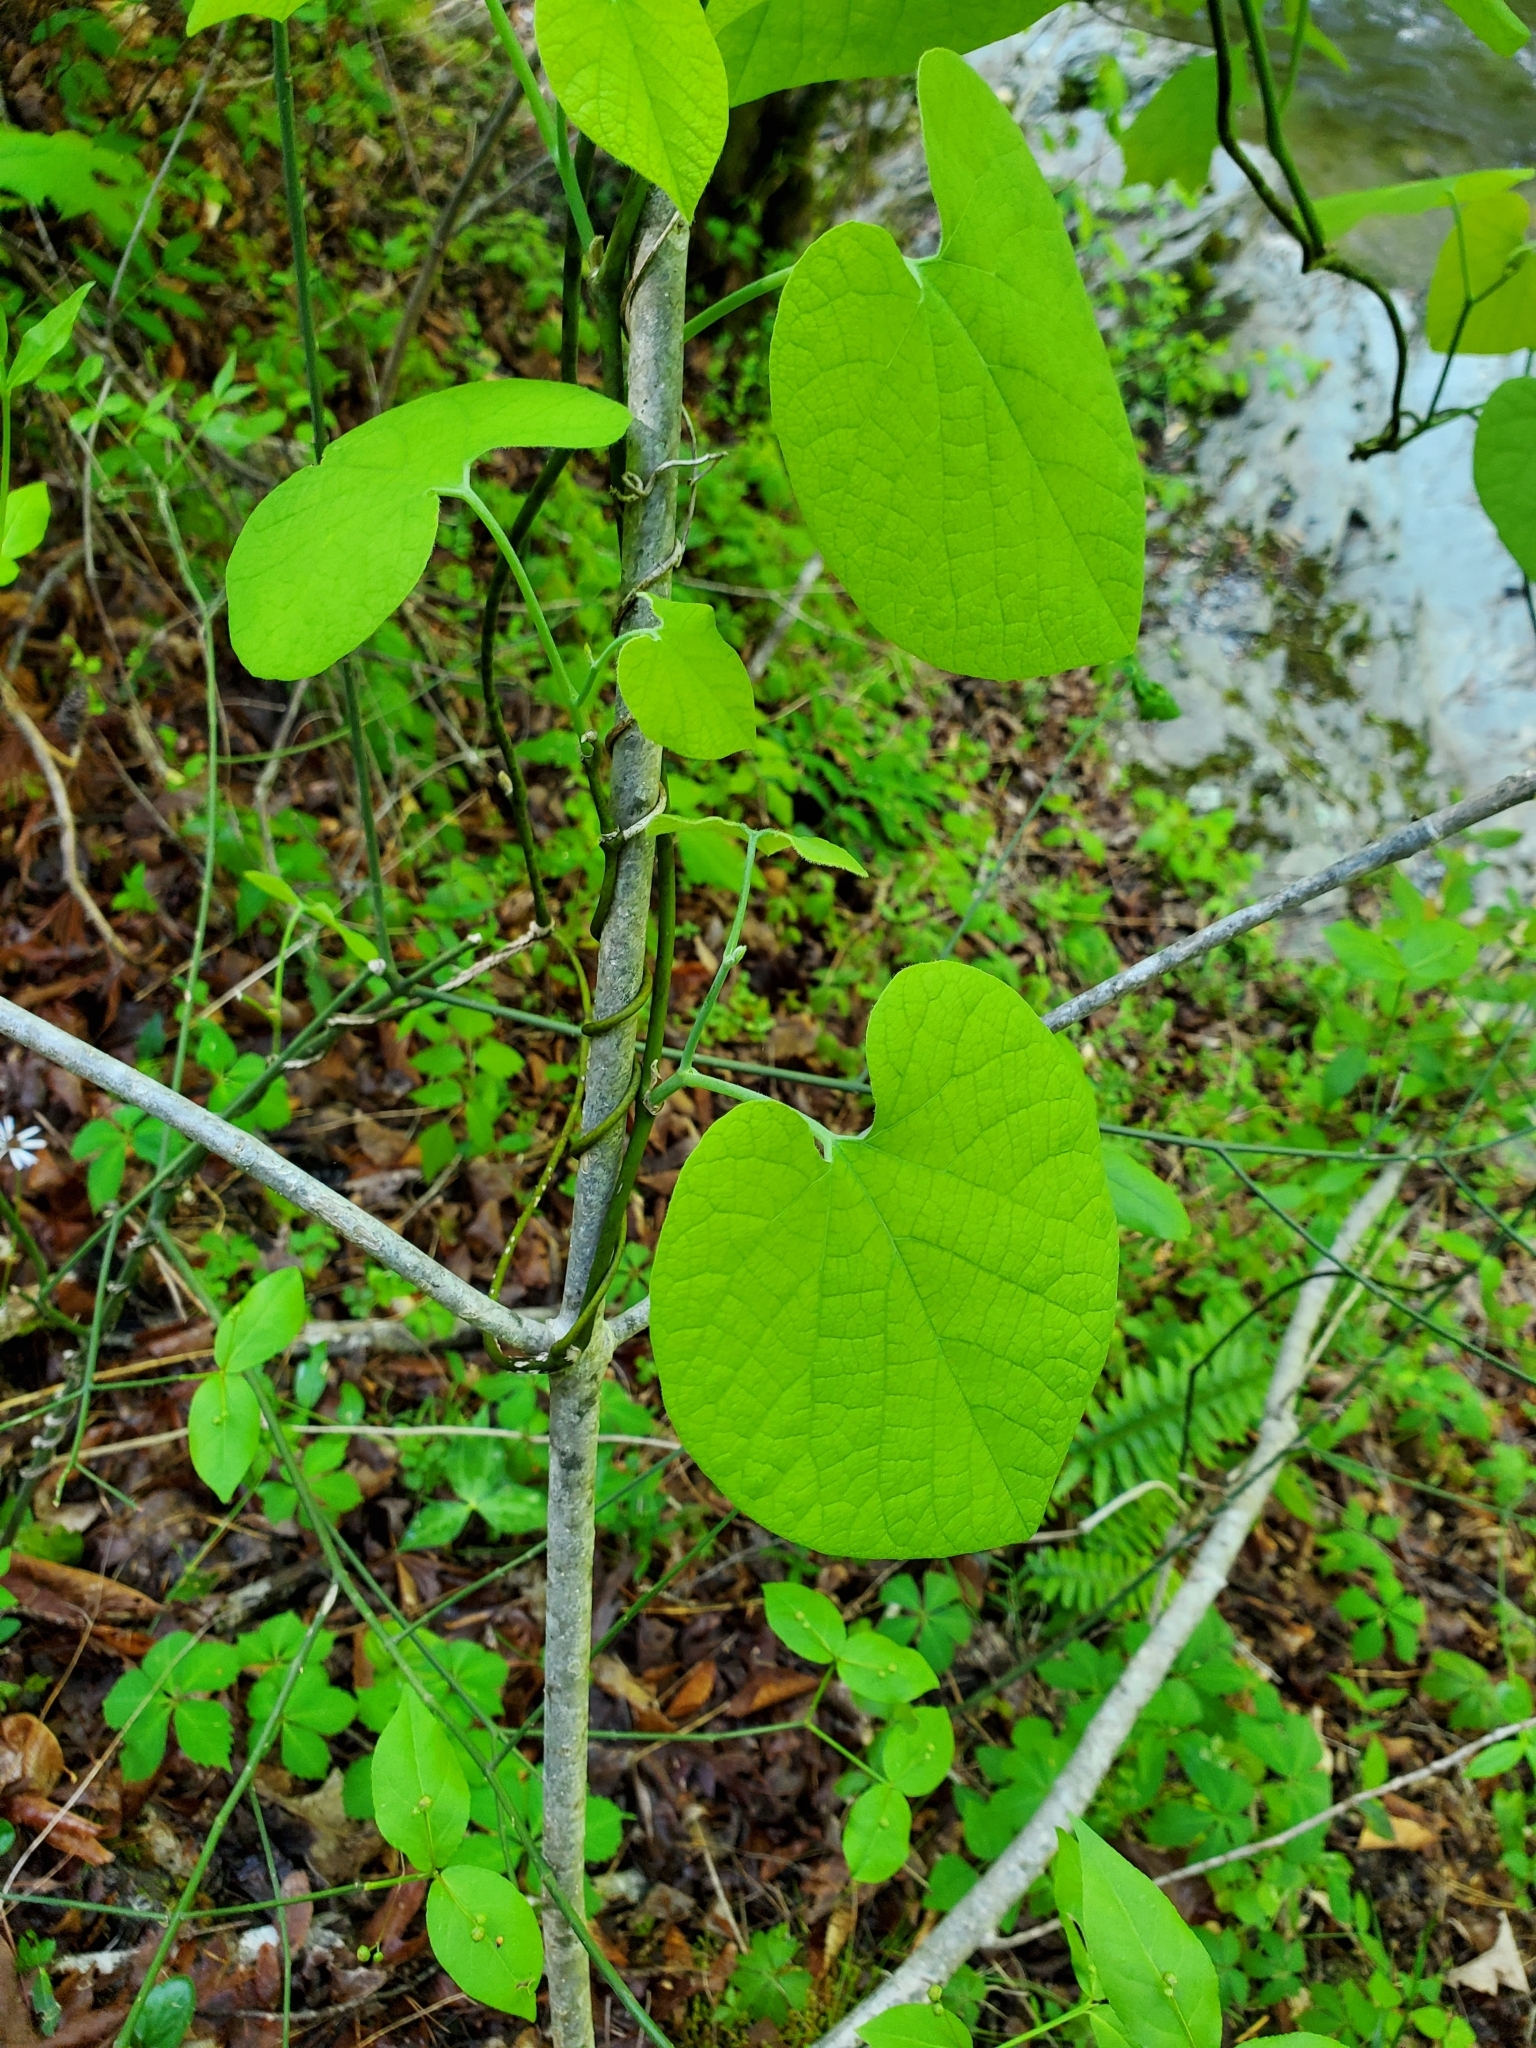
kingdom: Plantae
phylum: Tracheophyta
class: Magnoliopsida
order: Piperales
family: Aristolochiaceae
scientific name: Aristolochiaceae
